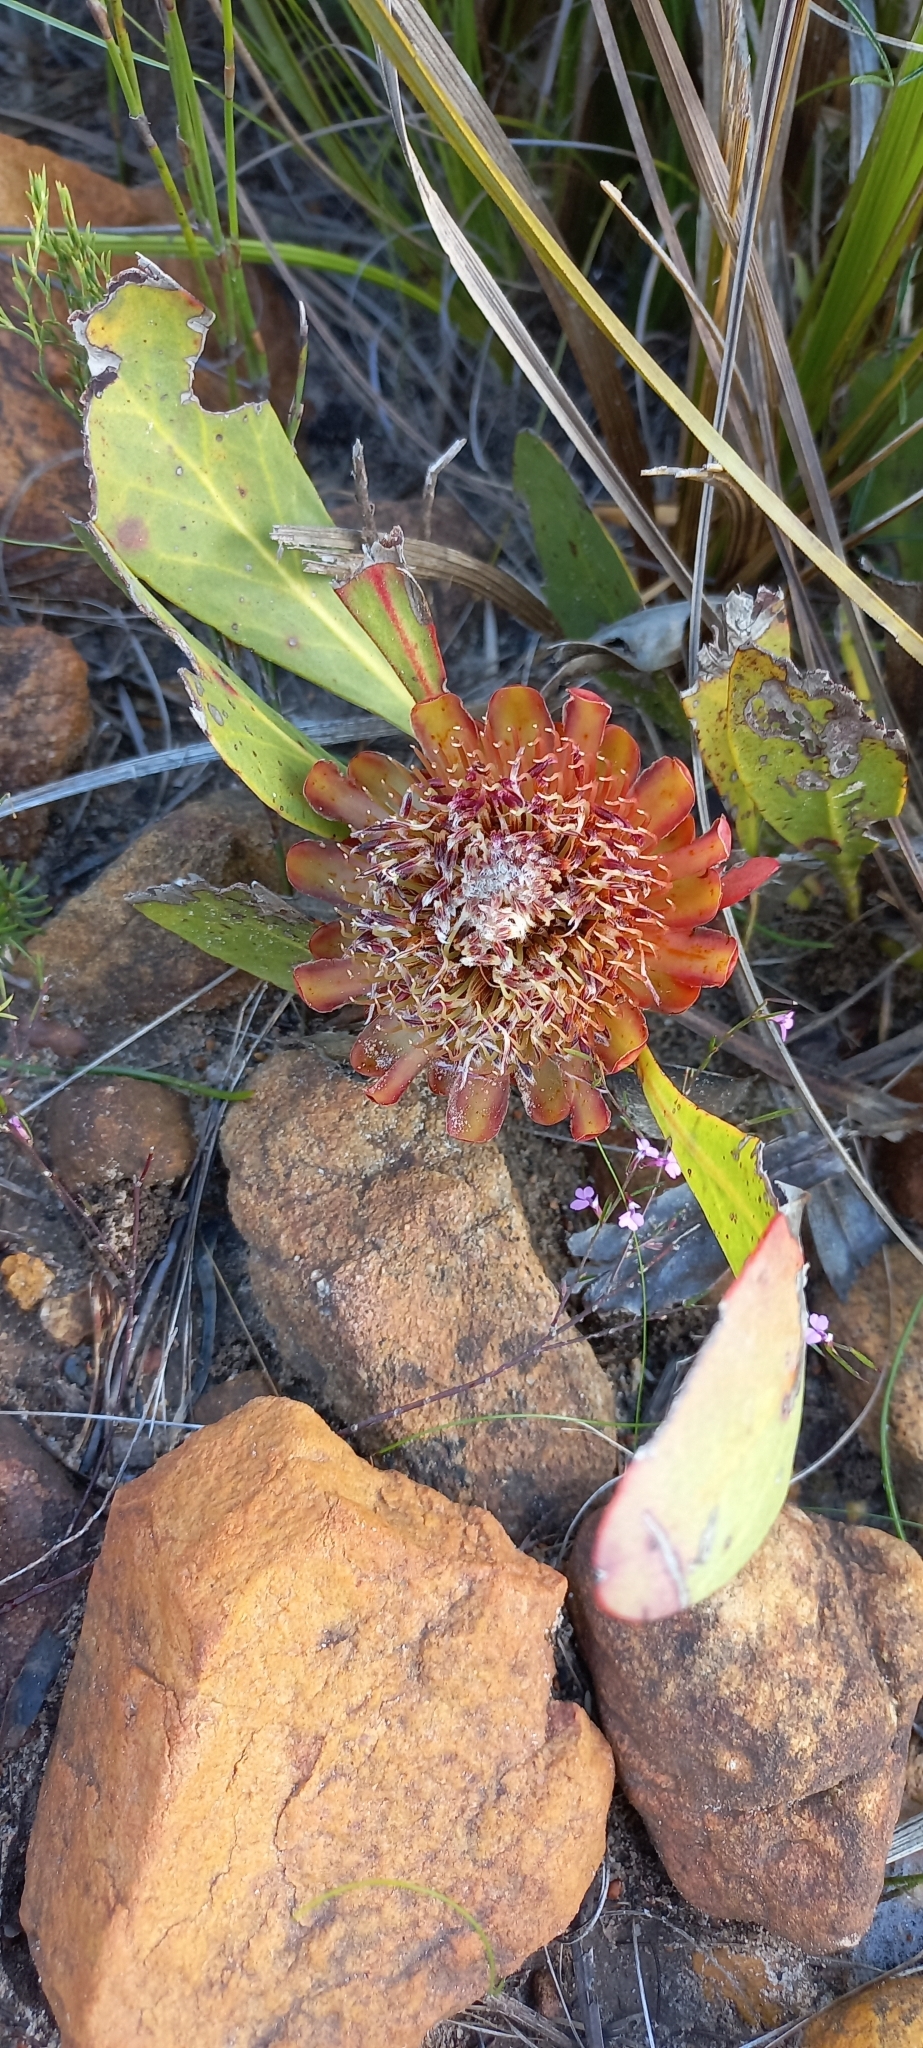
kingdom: Plantae
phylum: Tracheophyta
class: Magnoliopsida
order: Proteales
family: Proteaceae
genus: Protea
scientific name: Protea acaulos
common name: Common ground sugarbush
